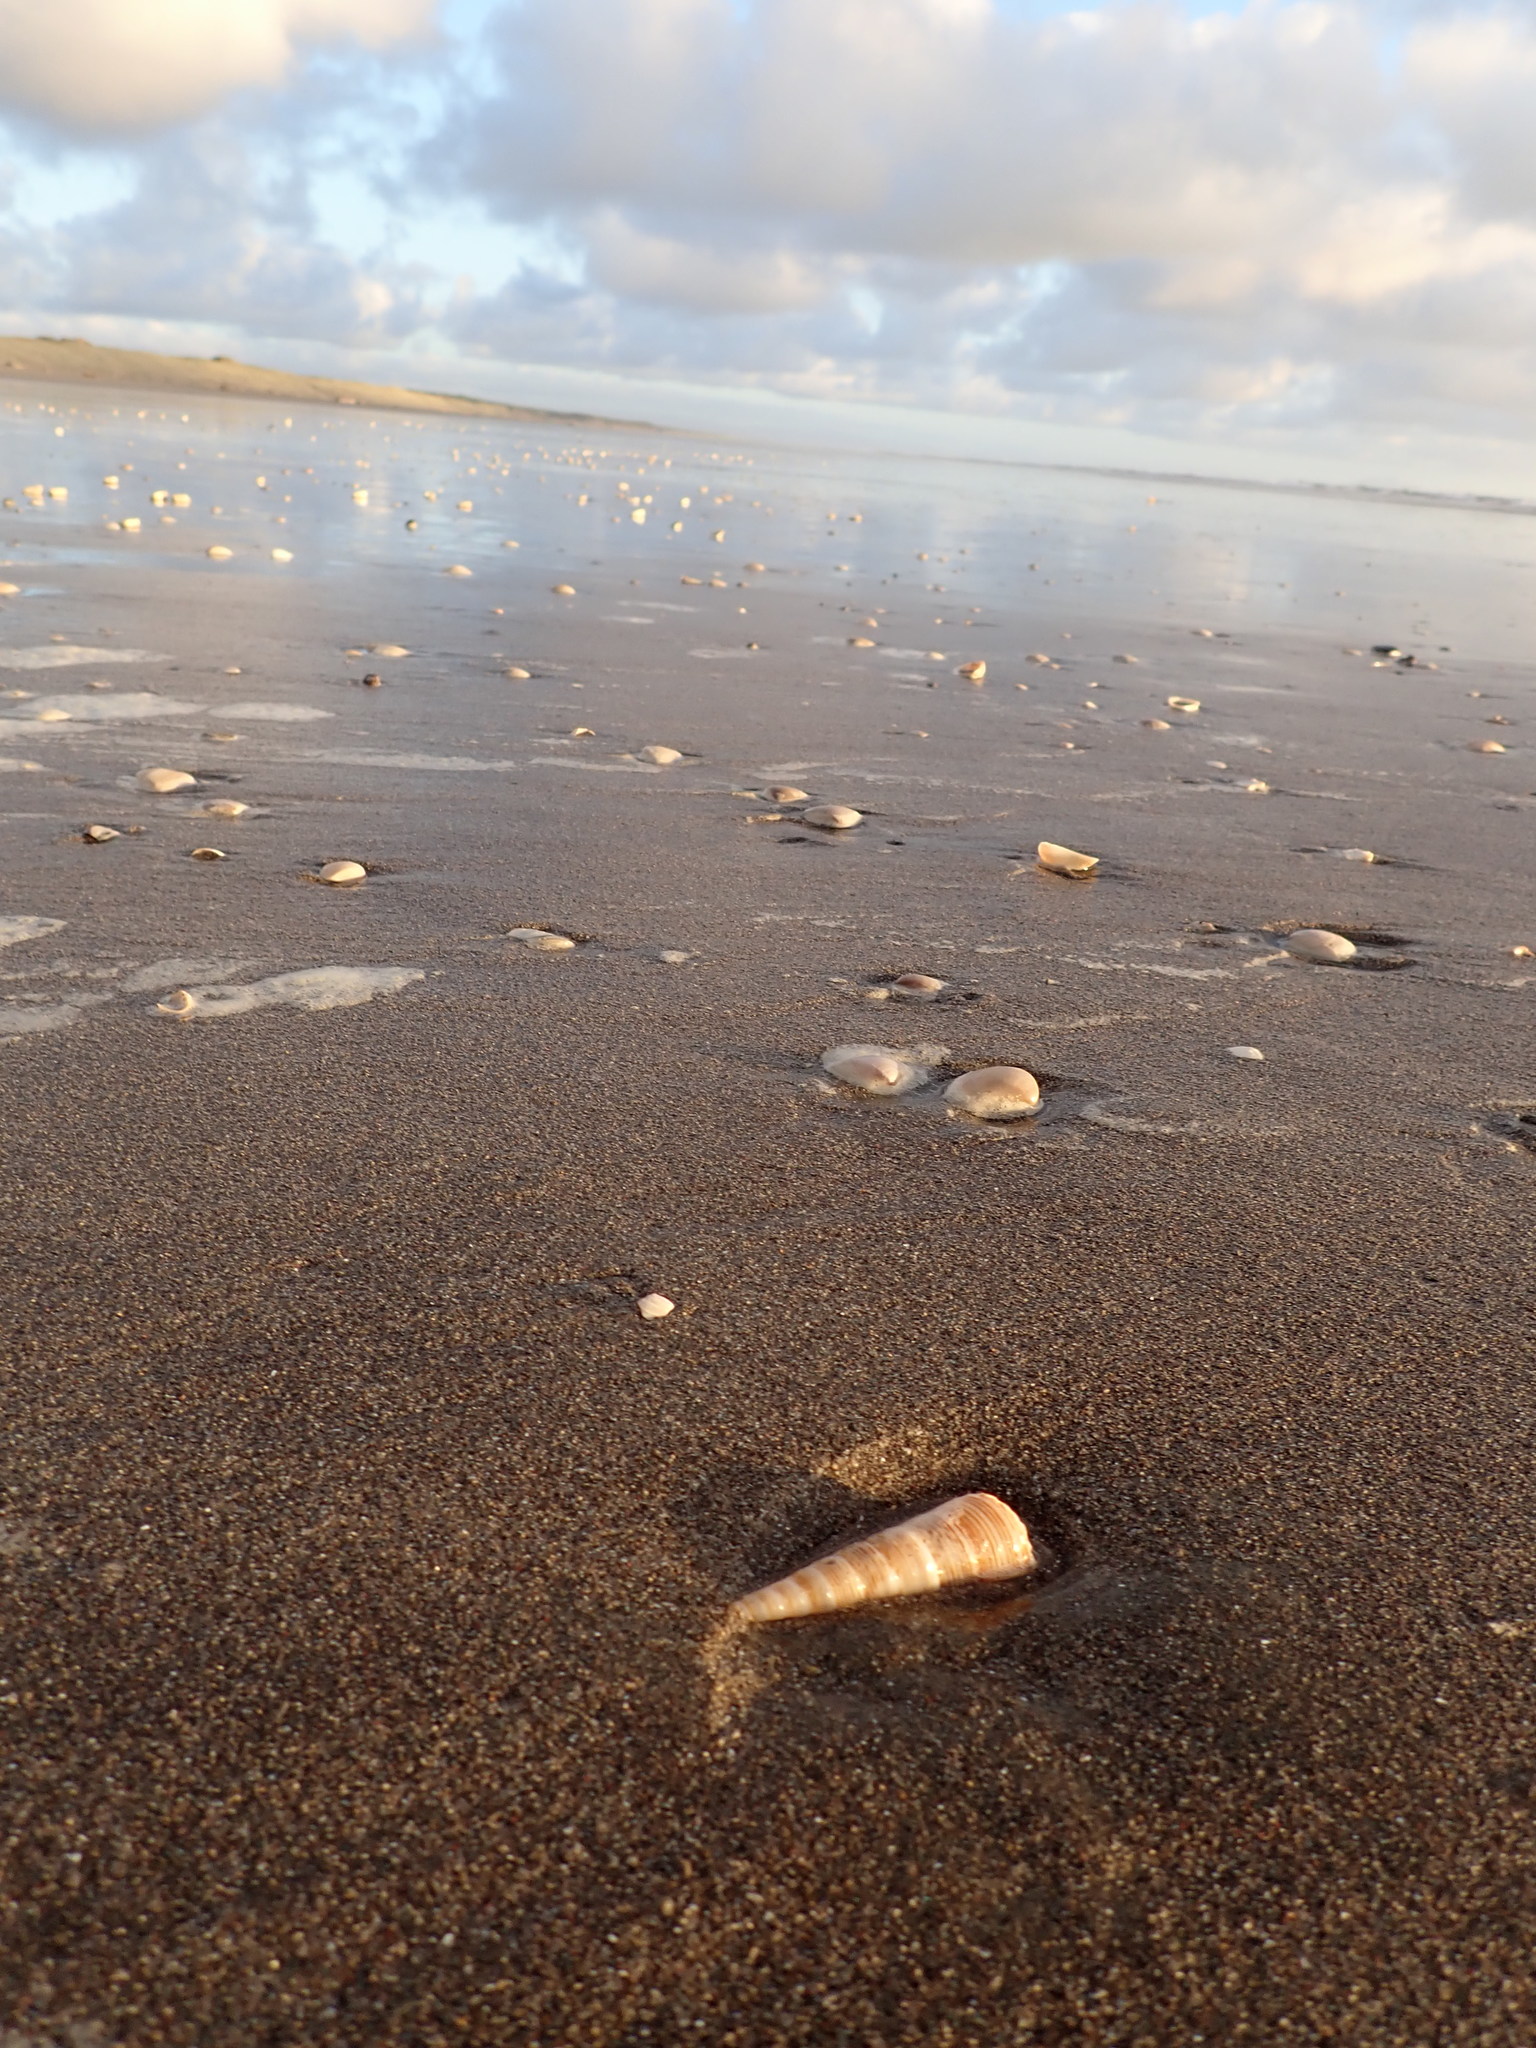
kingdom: Animalia
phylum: Mollusca
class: Gastropoda
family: Turritellidae
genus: Zeacolpus
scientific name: Zeacolpus vittatus
